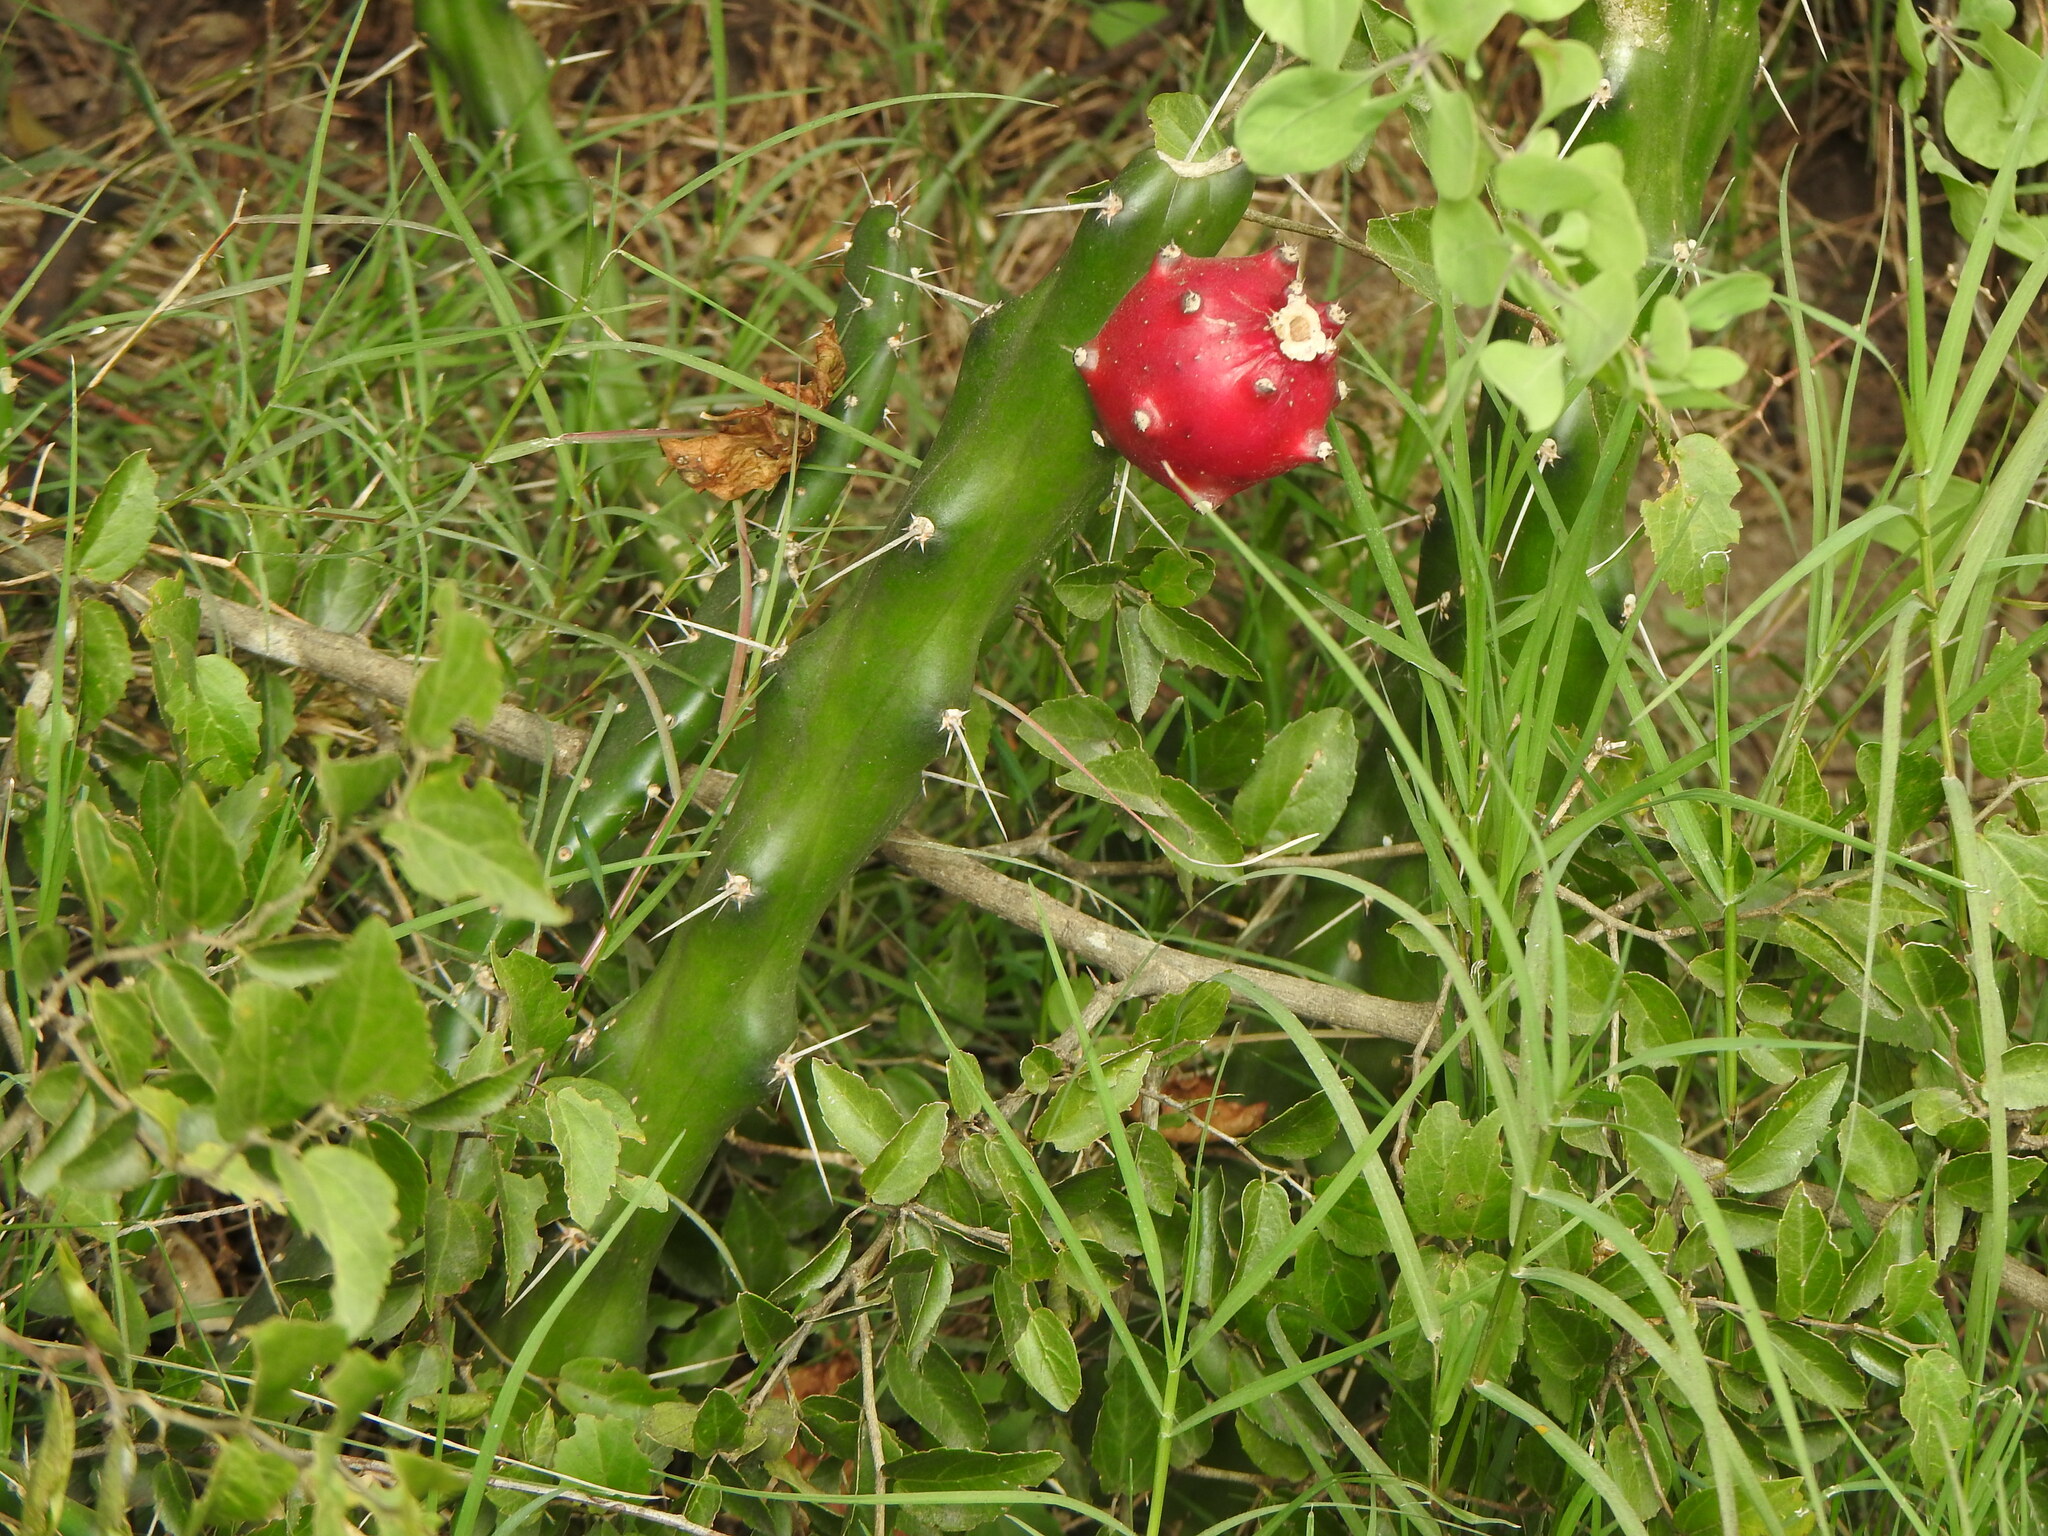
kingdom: Plantae
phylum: Tracheophyta
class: Magnoliopsida
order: Caryophyllales
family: Cactaceae
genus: Harrisia
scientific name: Harrisia martinii
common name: Moon cactus
